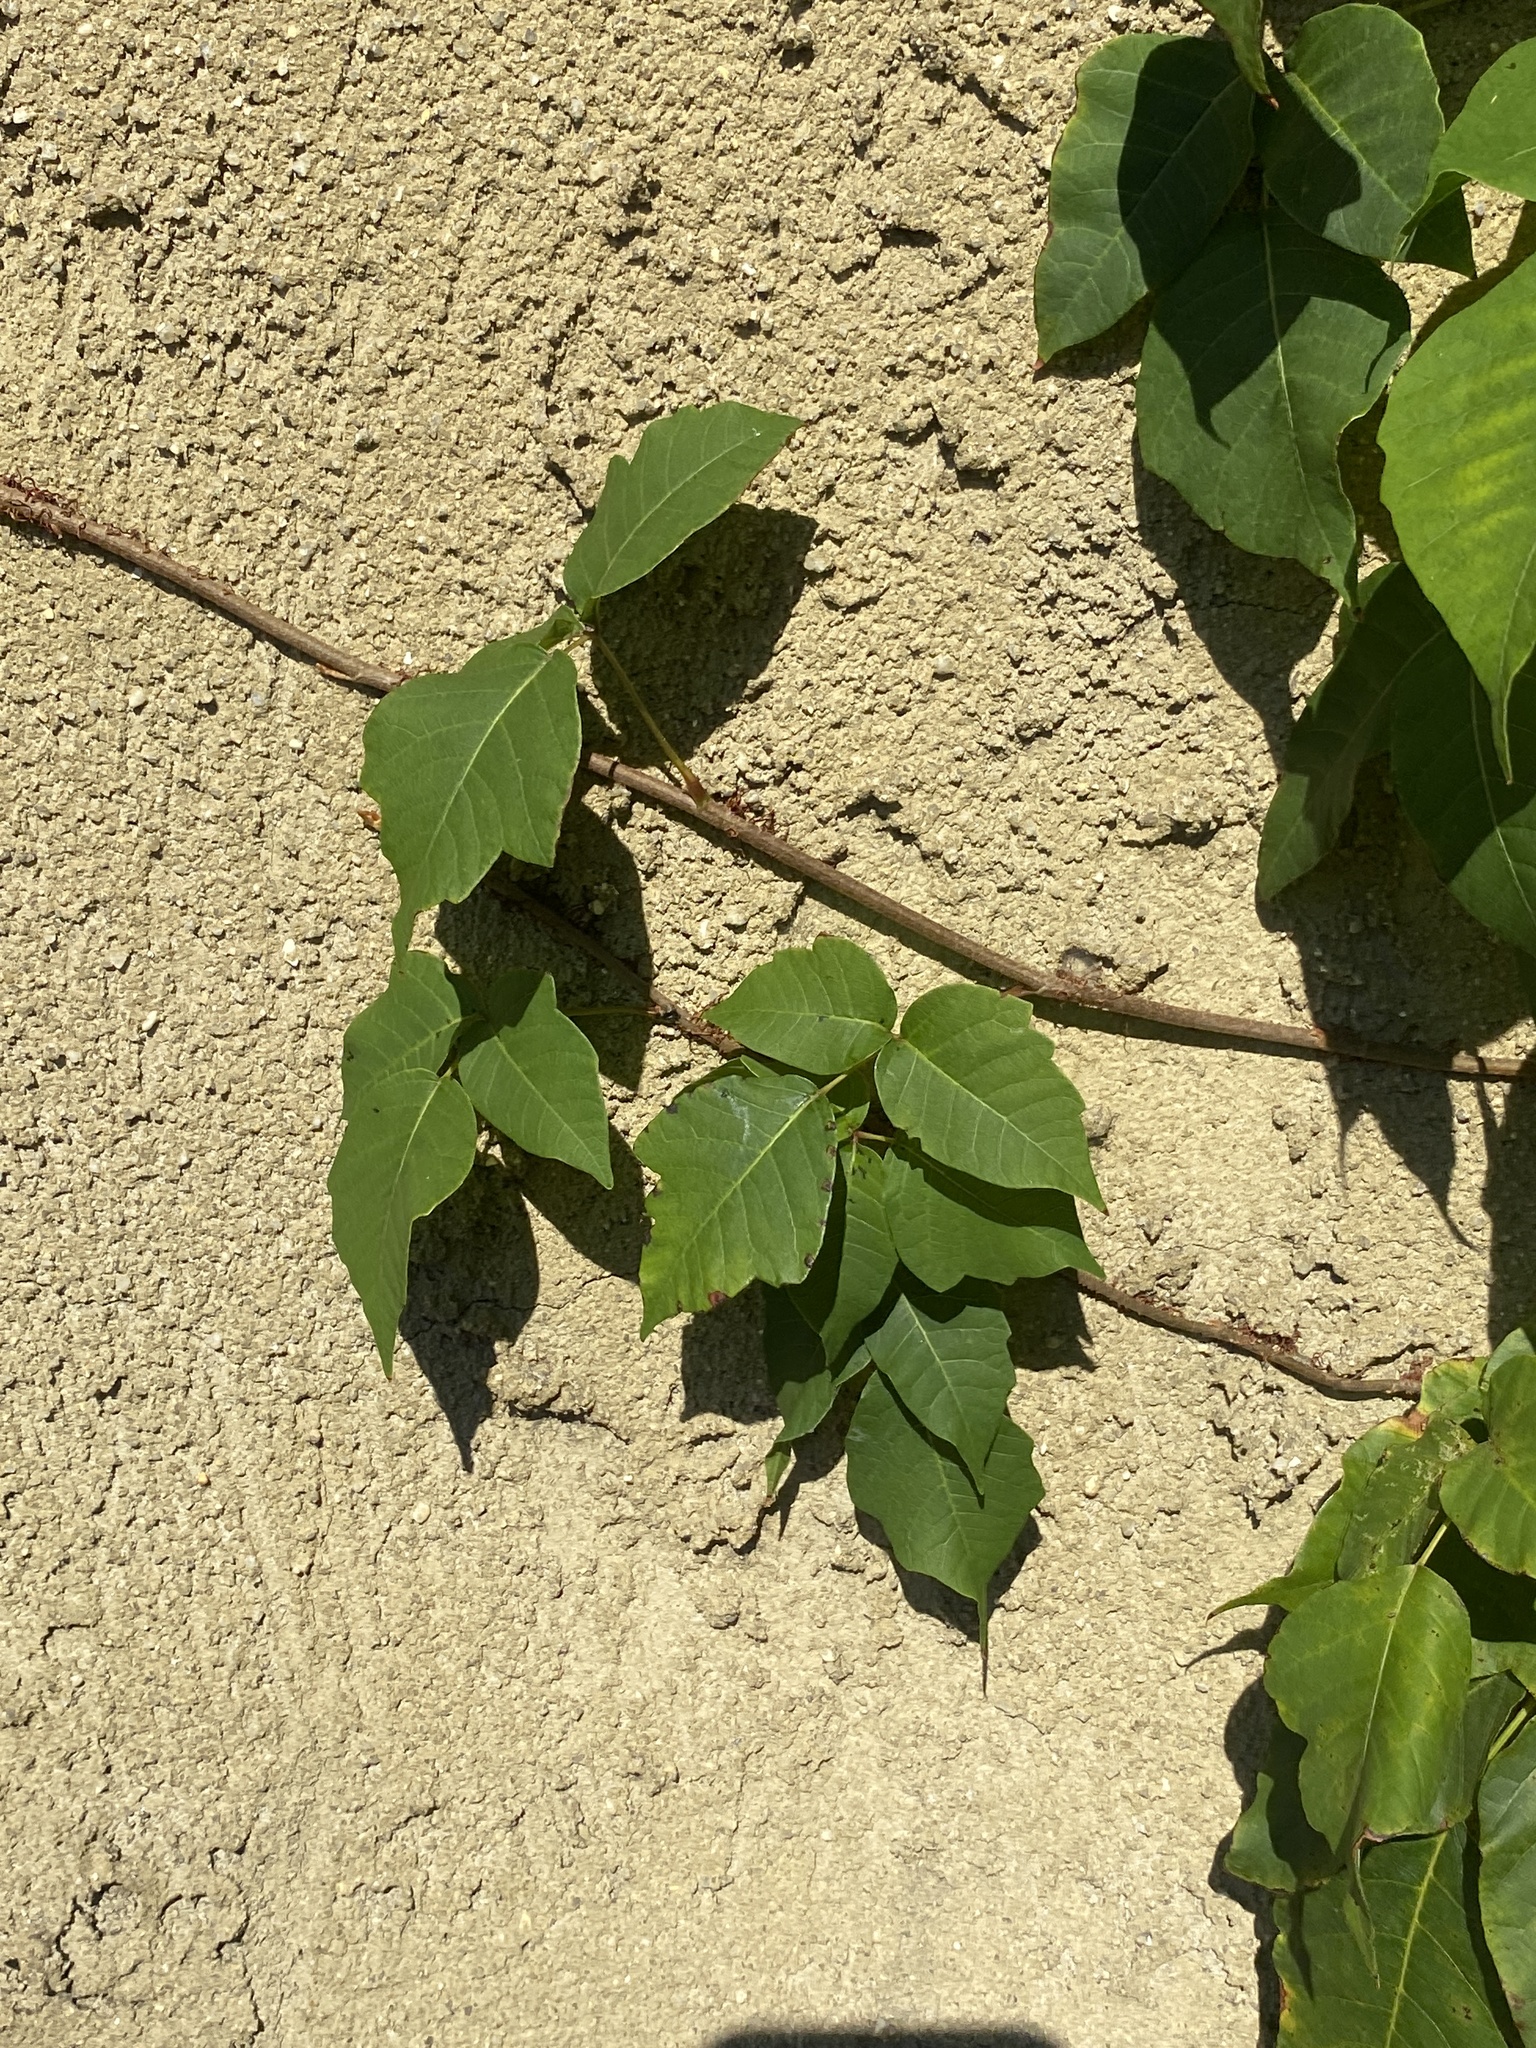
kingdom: Plantae
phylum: Tracheophyta
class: Magnoliopsida
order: Sapindales
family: Anacardiaceae
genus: Toxicodendron
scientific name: Toxicodendron radicans
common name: Poison ivy
